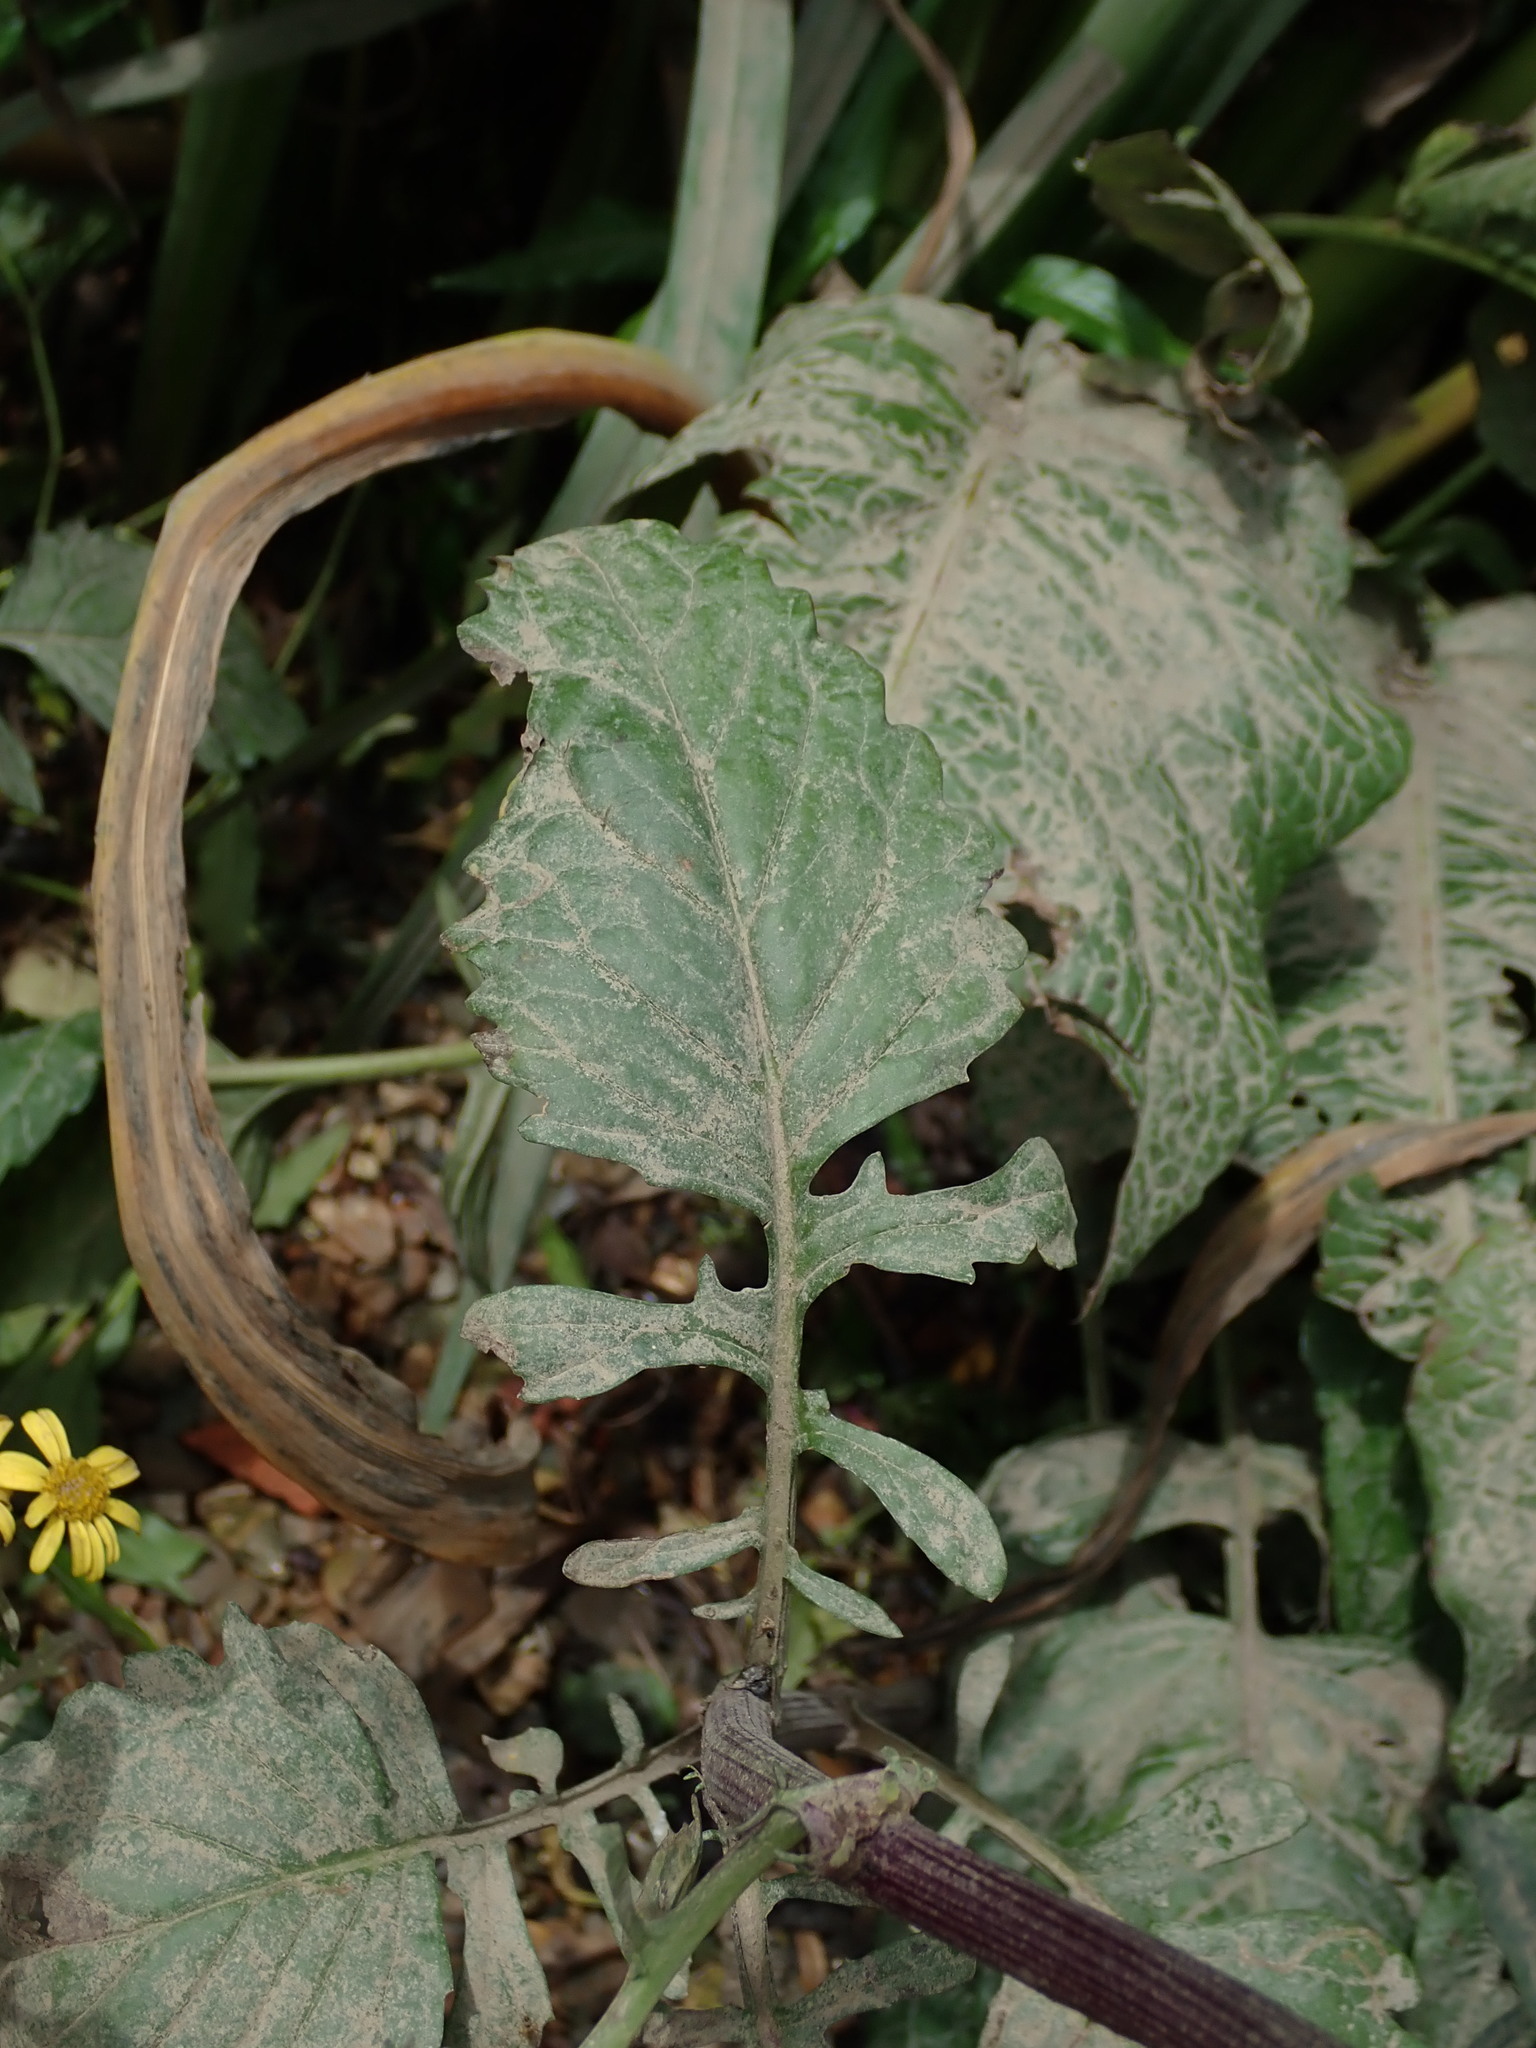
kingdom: Plantae
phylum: Tracheophyta
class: Magnoliopsida
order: Asterales
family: Asteraceae
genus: Jacobaea
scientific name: Jacobaea aquatica
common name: Water ragwort
